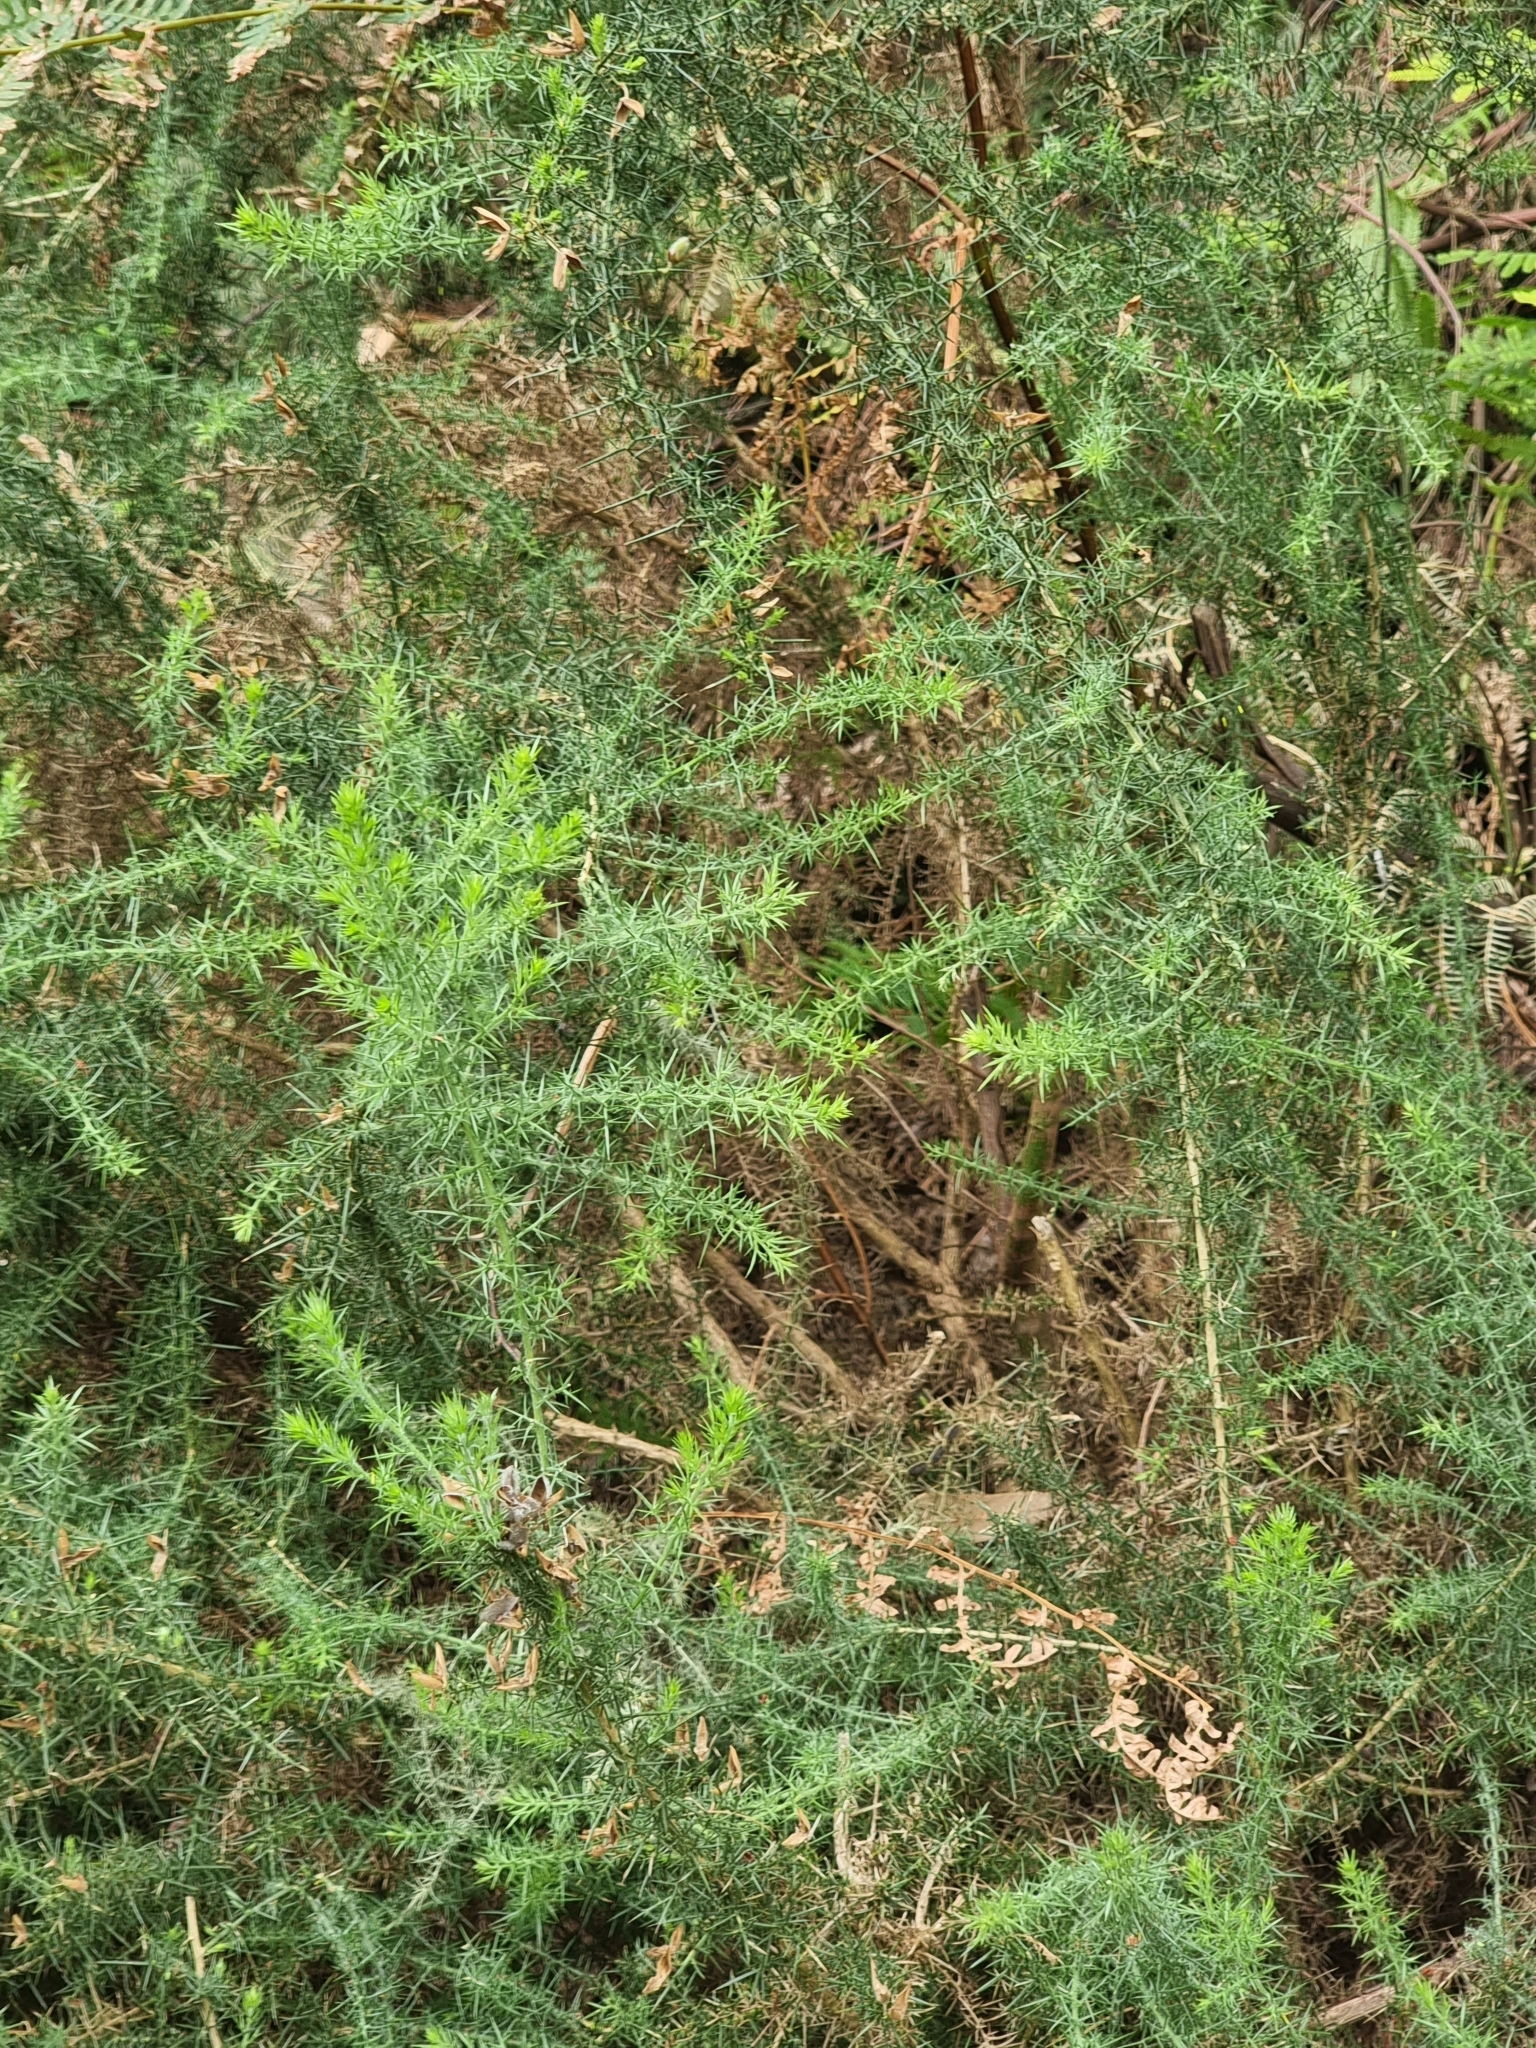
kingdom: Plantae
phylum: Tracheophyta
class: Magnoliopsida
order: Fabales
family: Fabaceae
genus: Ulex
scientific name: Ulex europaeus
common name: Common gorse
